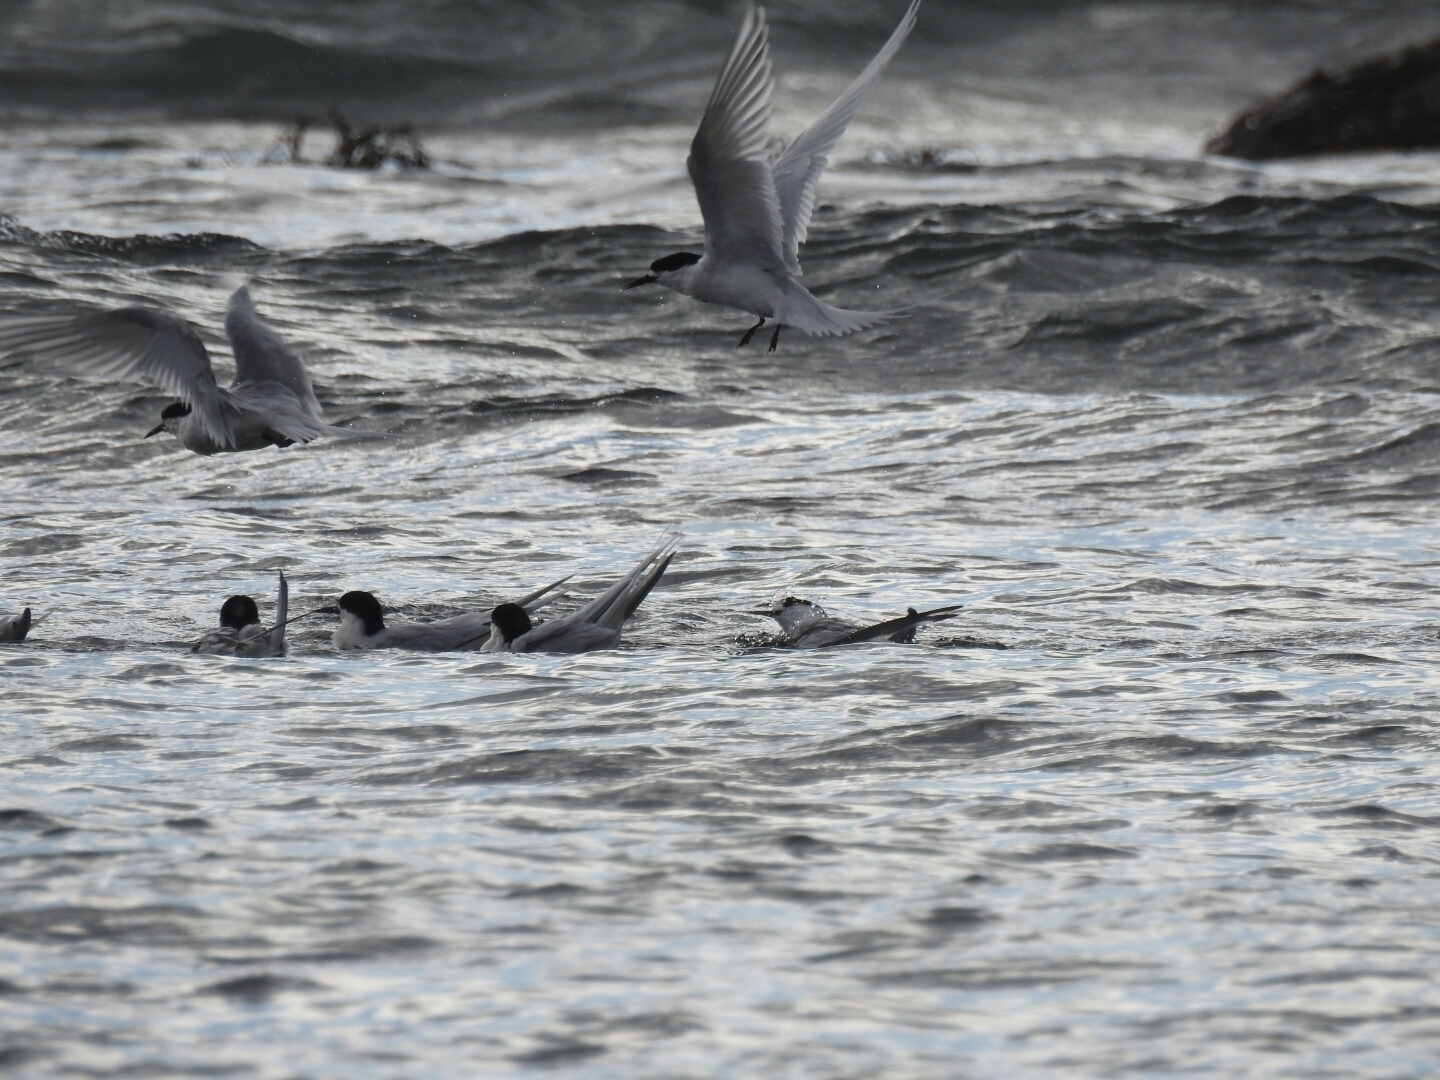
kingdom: Animalia
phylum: Chordata
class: Aves
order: Charadriiformes
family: Laridae
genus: Sterna
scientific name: Sterna striata
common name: White-fronted tern
